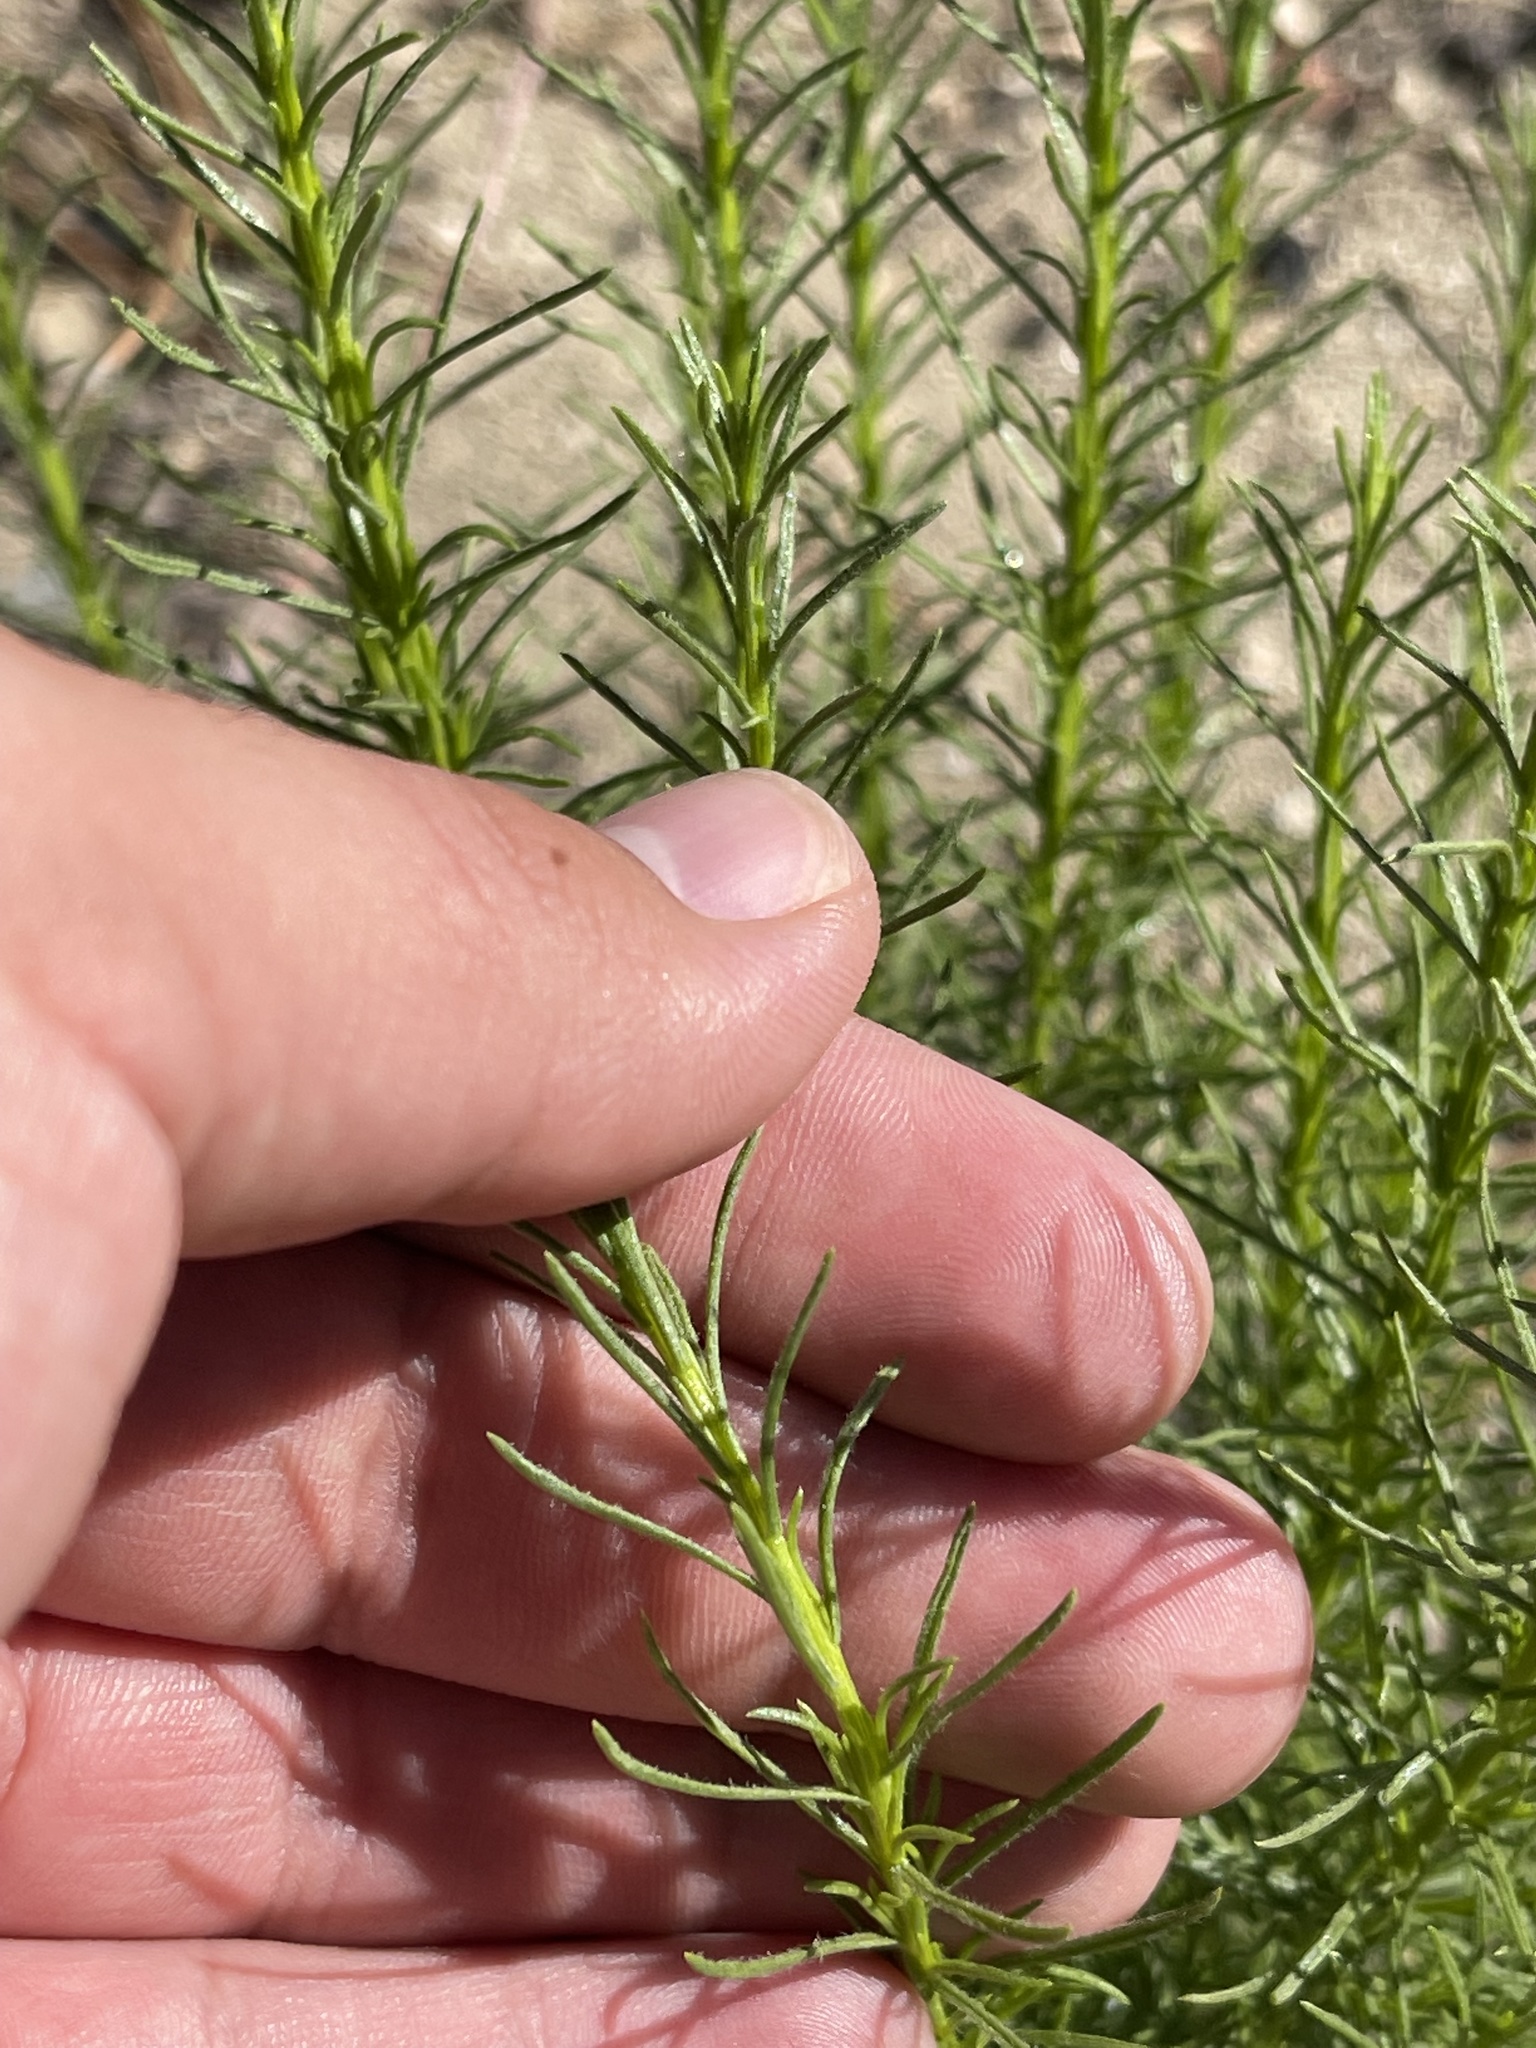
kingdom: Plantae
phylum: Tracheophyta
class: Magnoliopsida
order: Asterales
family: Asteraceae
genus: Ericameria
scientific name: Ericameria pinifolia
